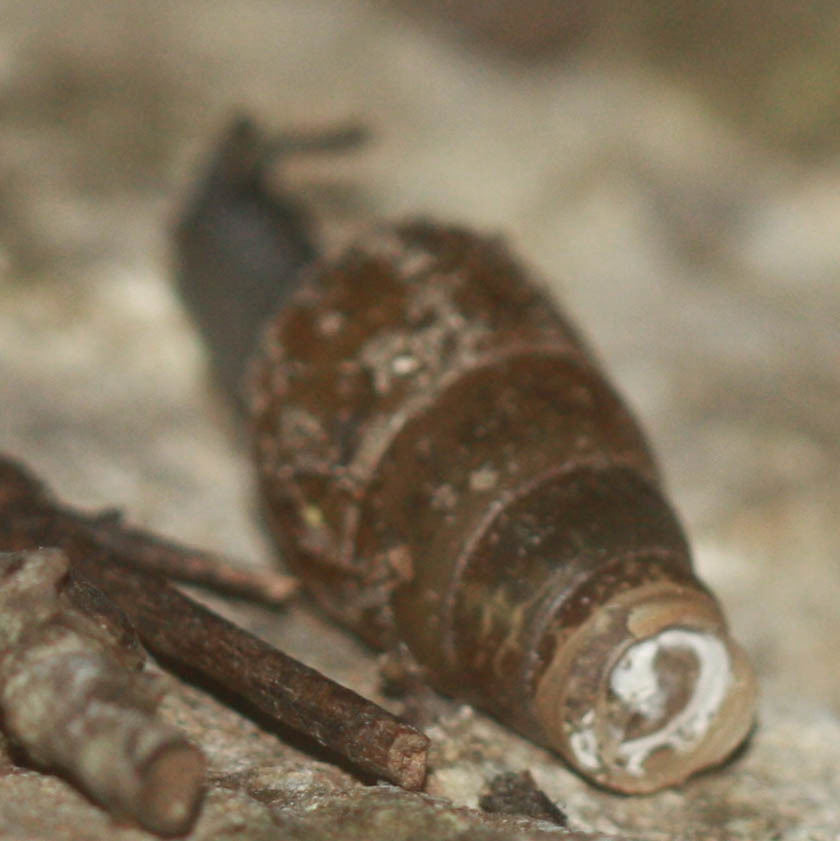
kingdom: Animalia
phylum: Mollusca
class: Gastropoda
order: Stylommatophora
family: Achatinidae
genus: Rumina
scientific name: Rumina decollata
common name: Decollate snail
